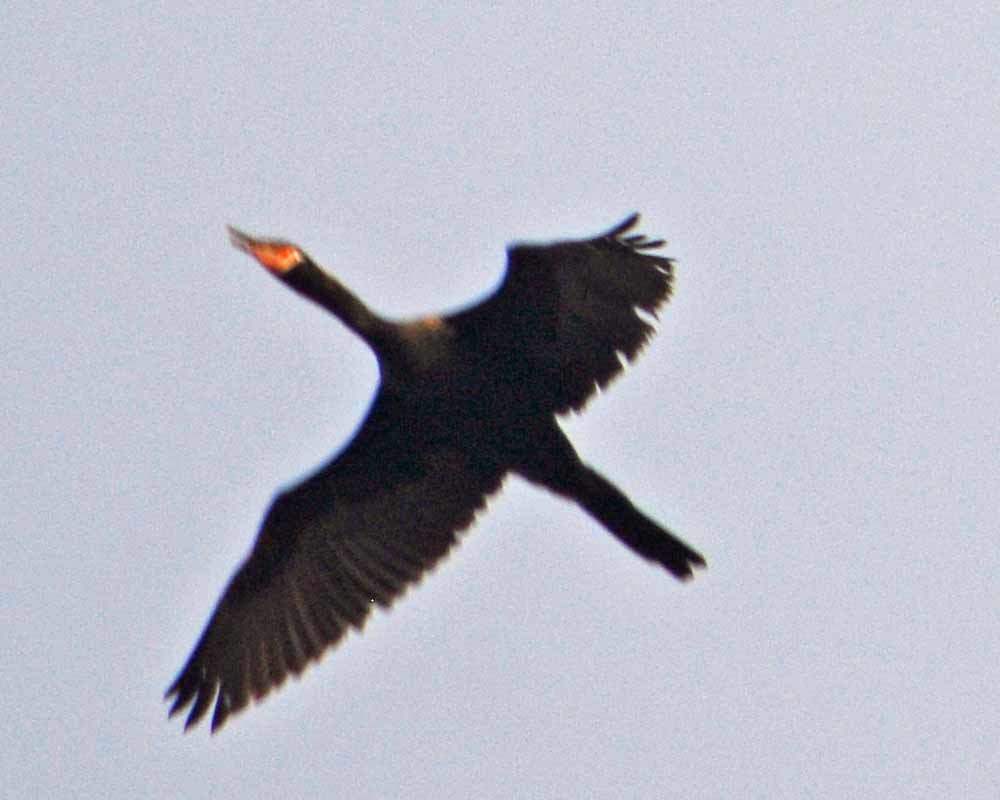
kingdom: Animalia
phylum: Chordata
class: Aves
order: Suliformes
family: Phalacrocoracidae
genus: Phalacrocorax
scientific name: Phalacrocorax brasilianus
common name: Neotropic cormorant
